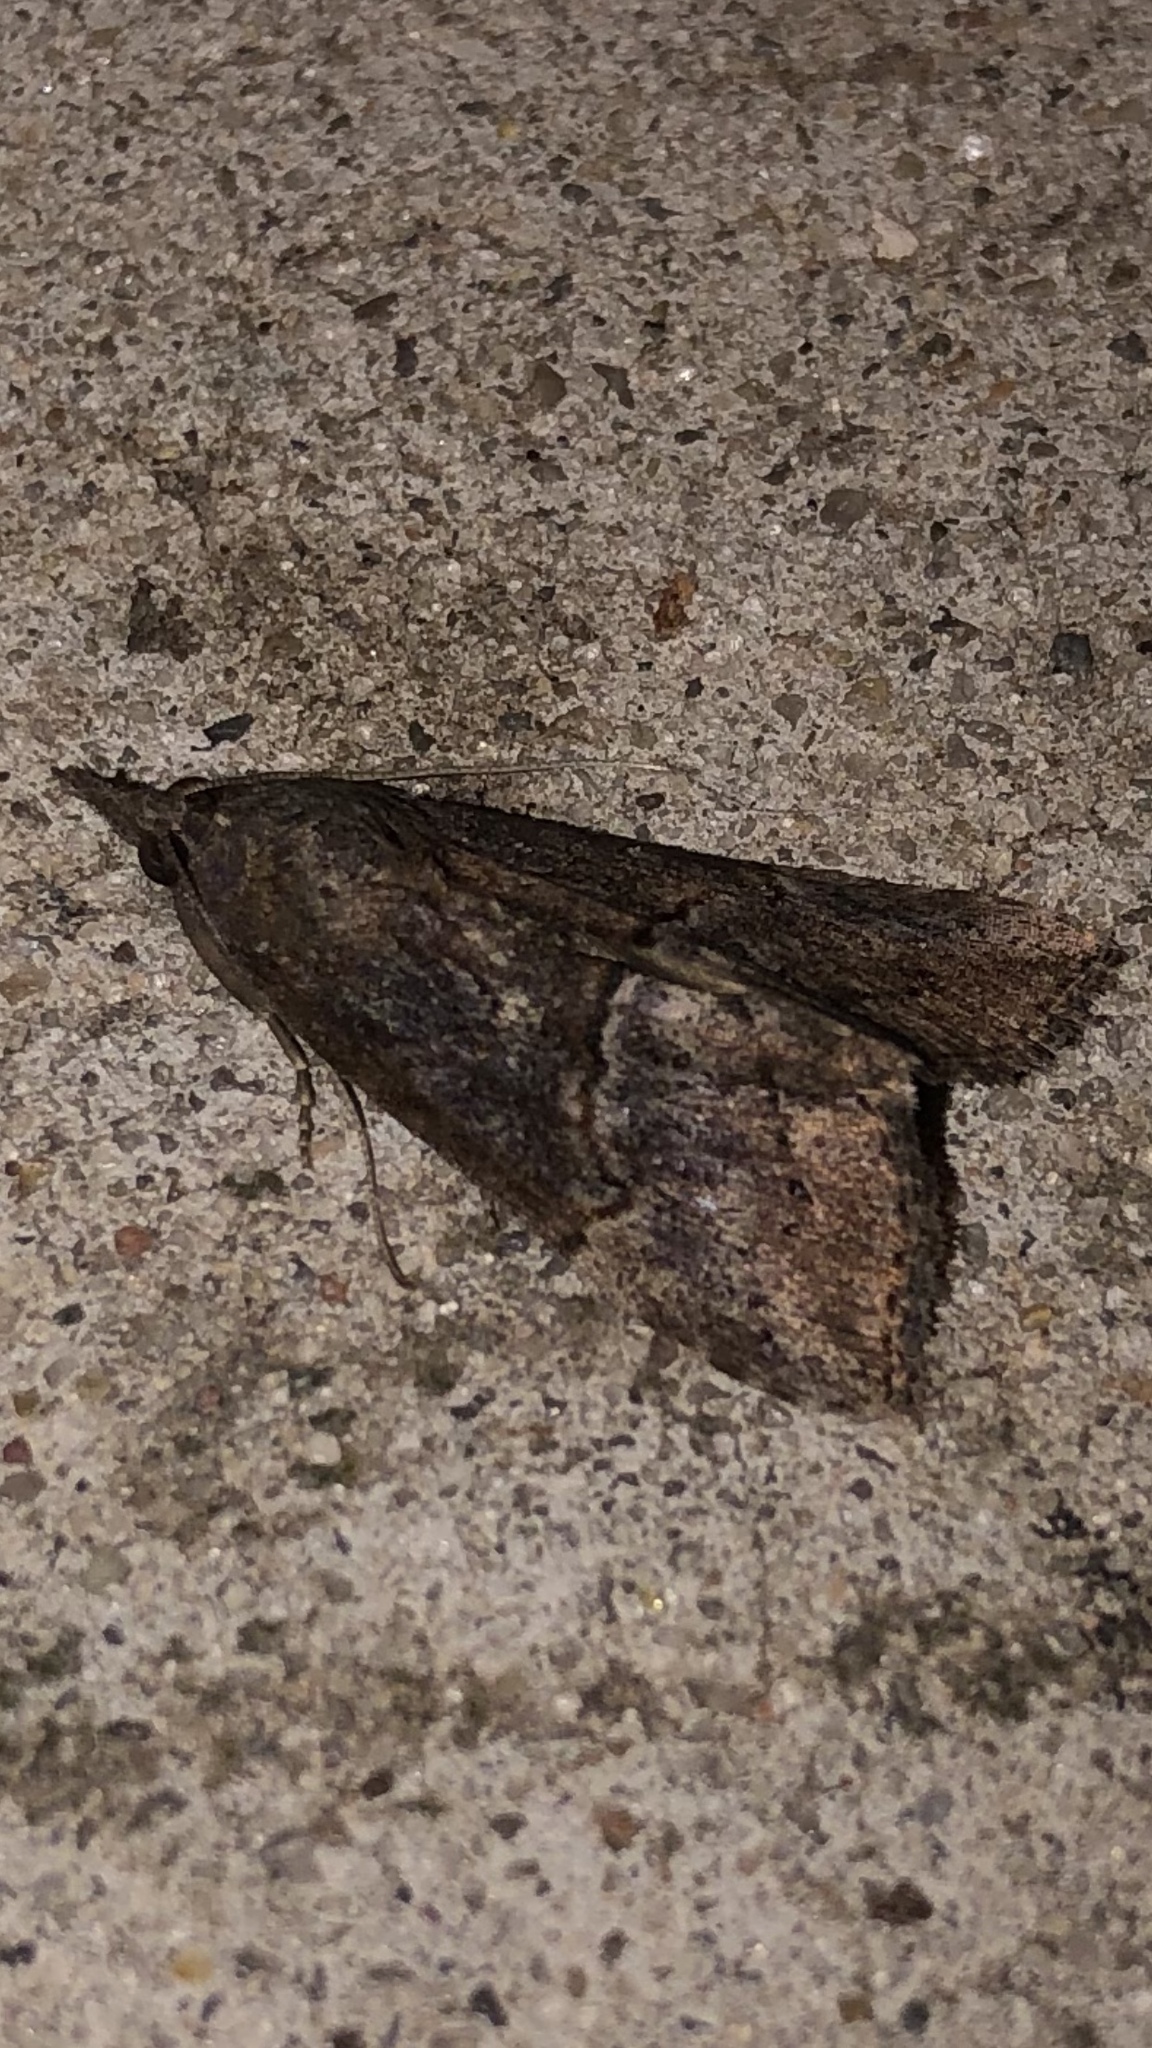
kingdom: Animalia
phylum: Arthropoda
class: Insecta
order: Lepidoptera
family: Erebidae
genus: Hypena
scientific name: Hypena scabra
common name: Green cloverworm
